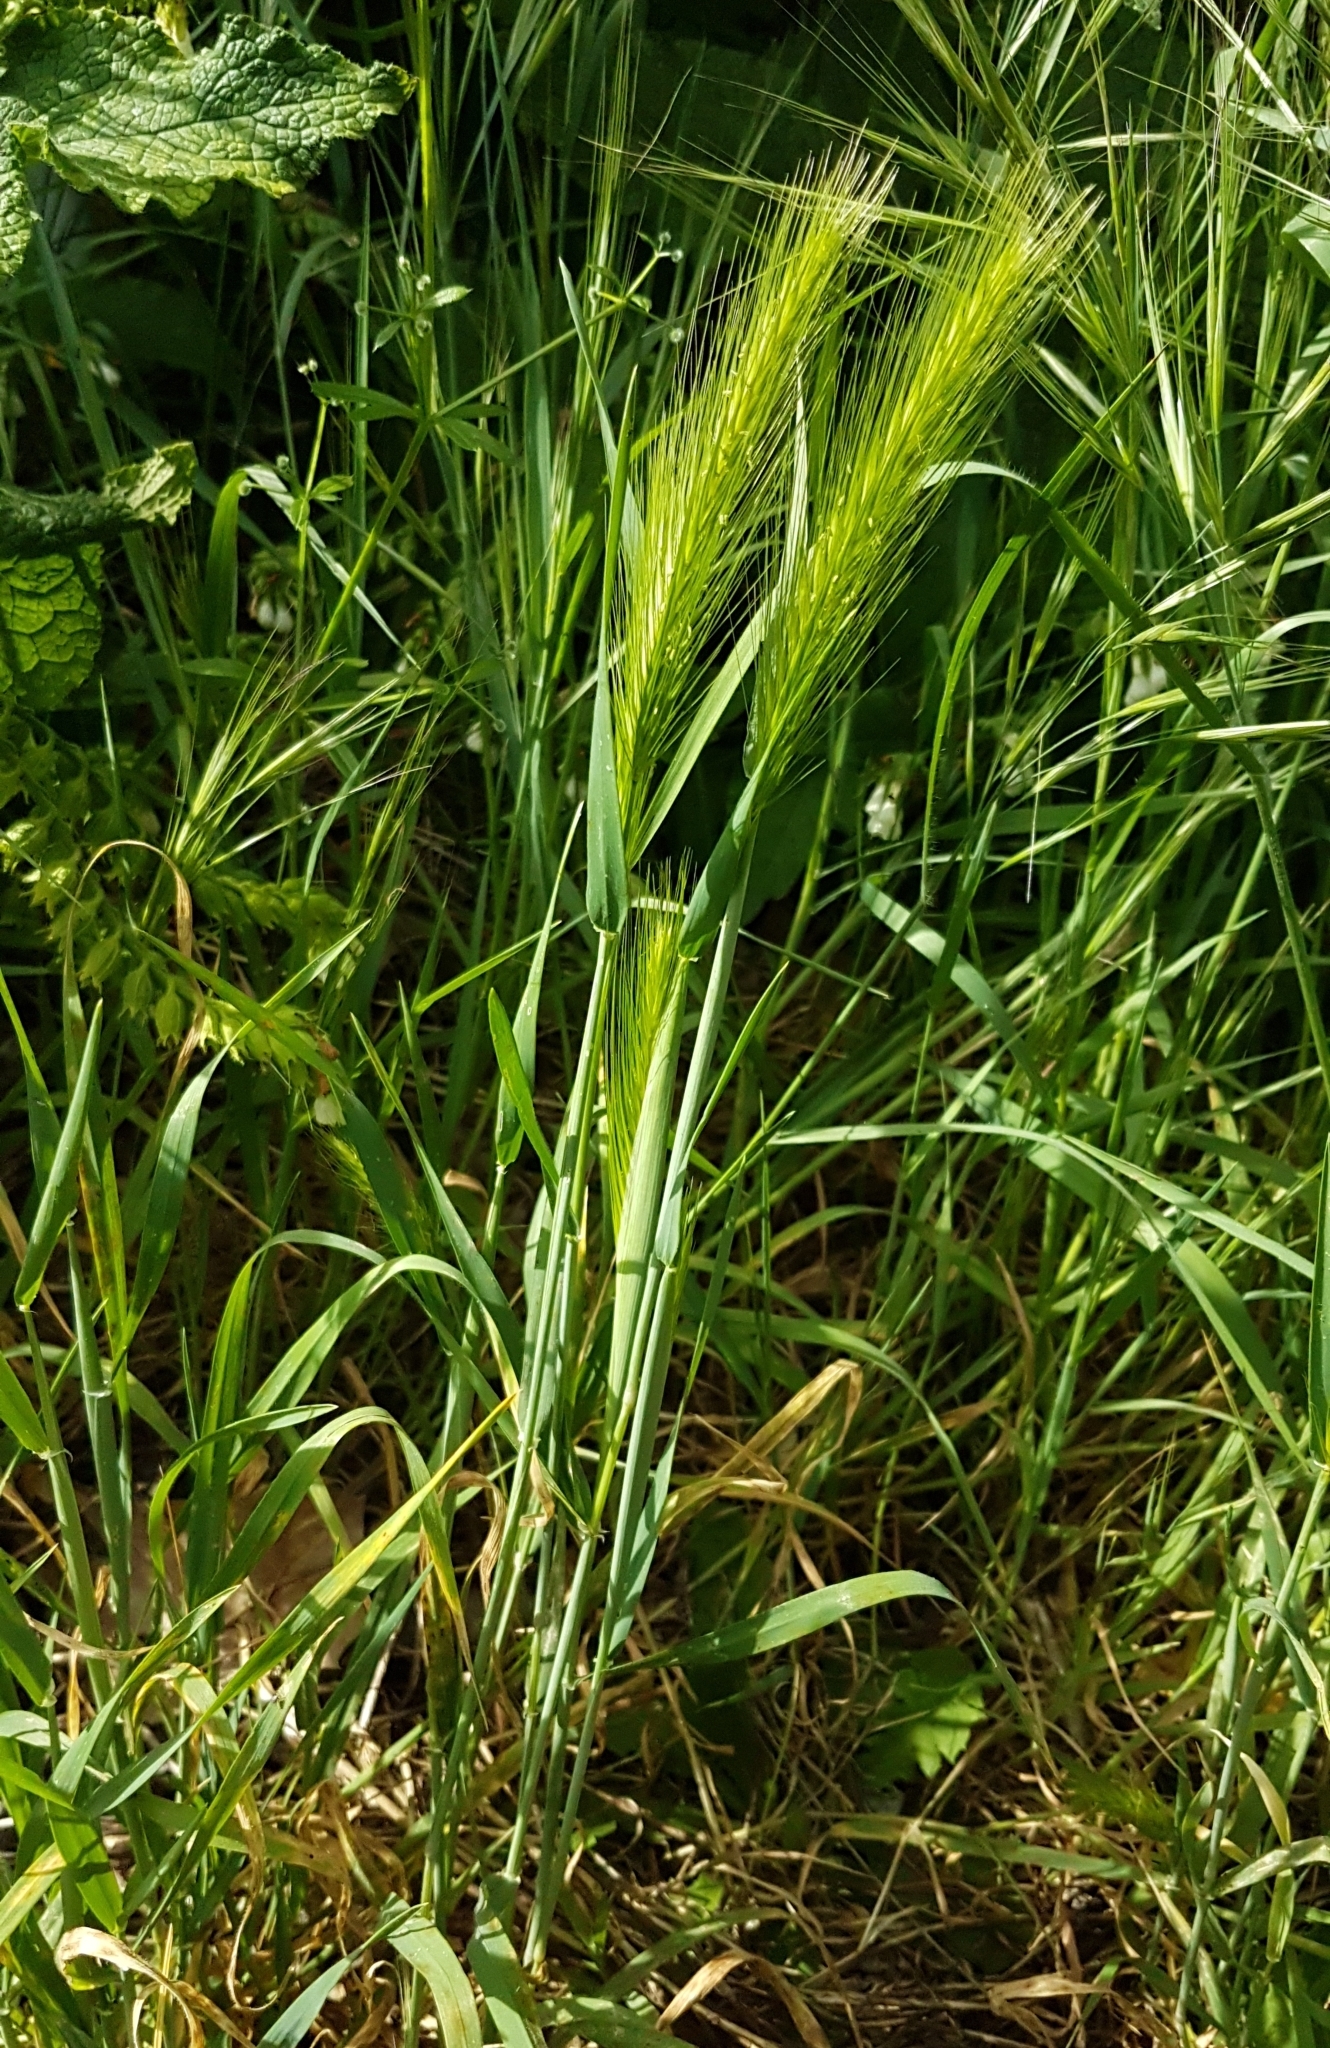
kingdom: Plantae
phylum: Tracheophyta
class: Liliopsida
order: Poales
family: Poaceae
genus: Hordeum
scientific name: Hordeum murinum
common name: Wall barley
